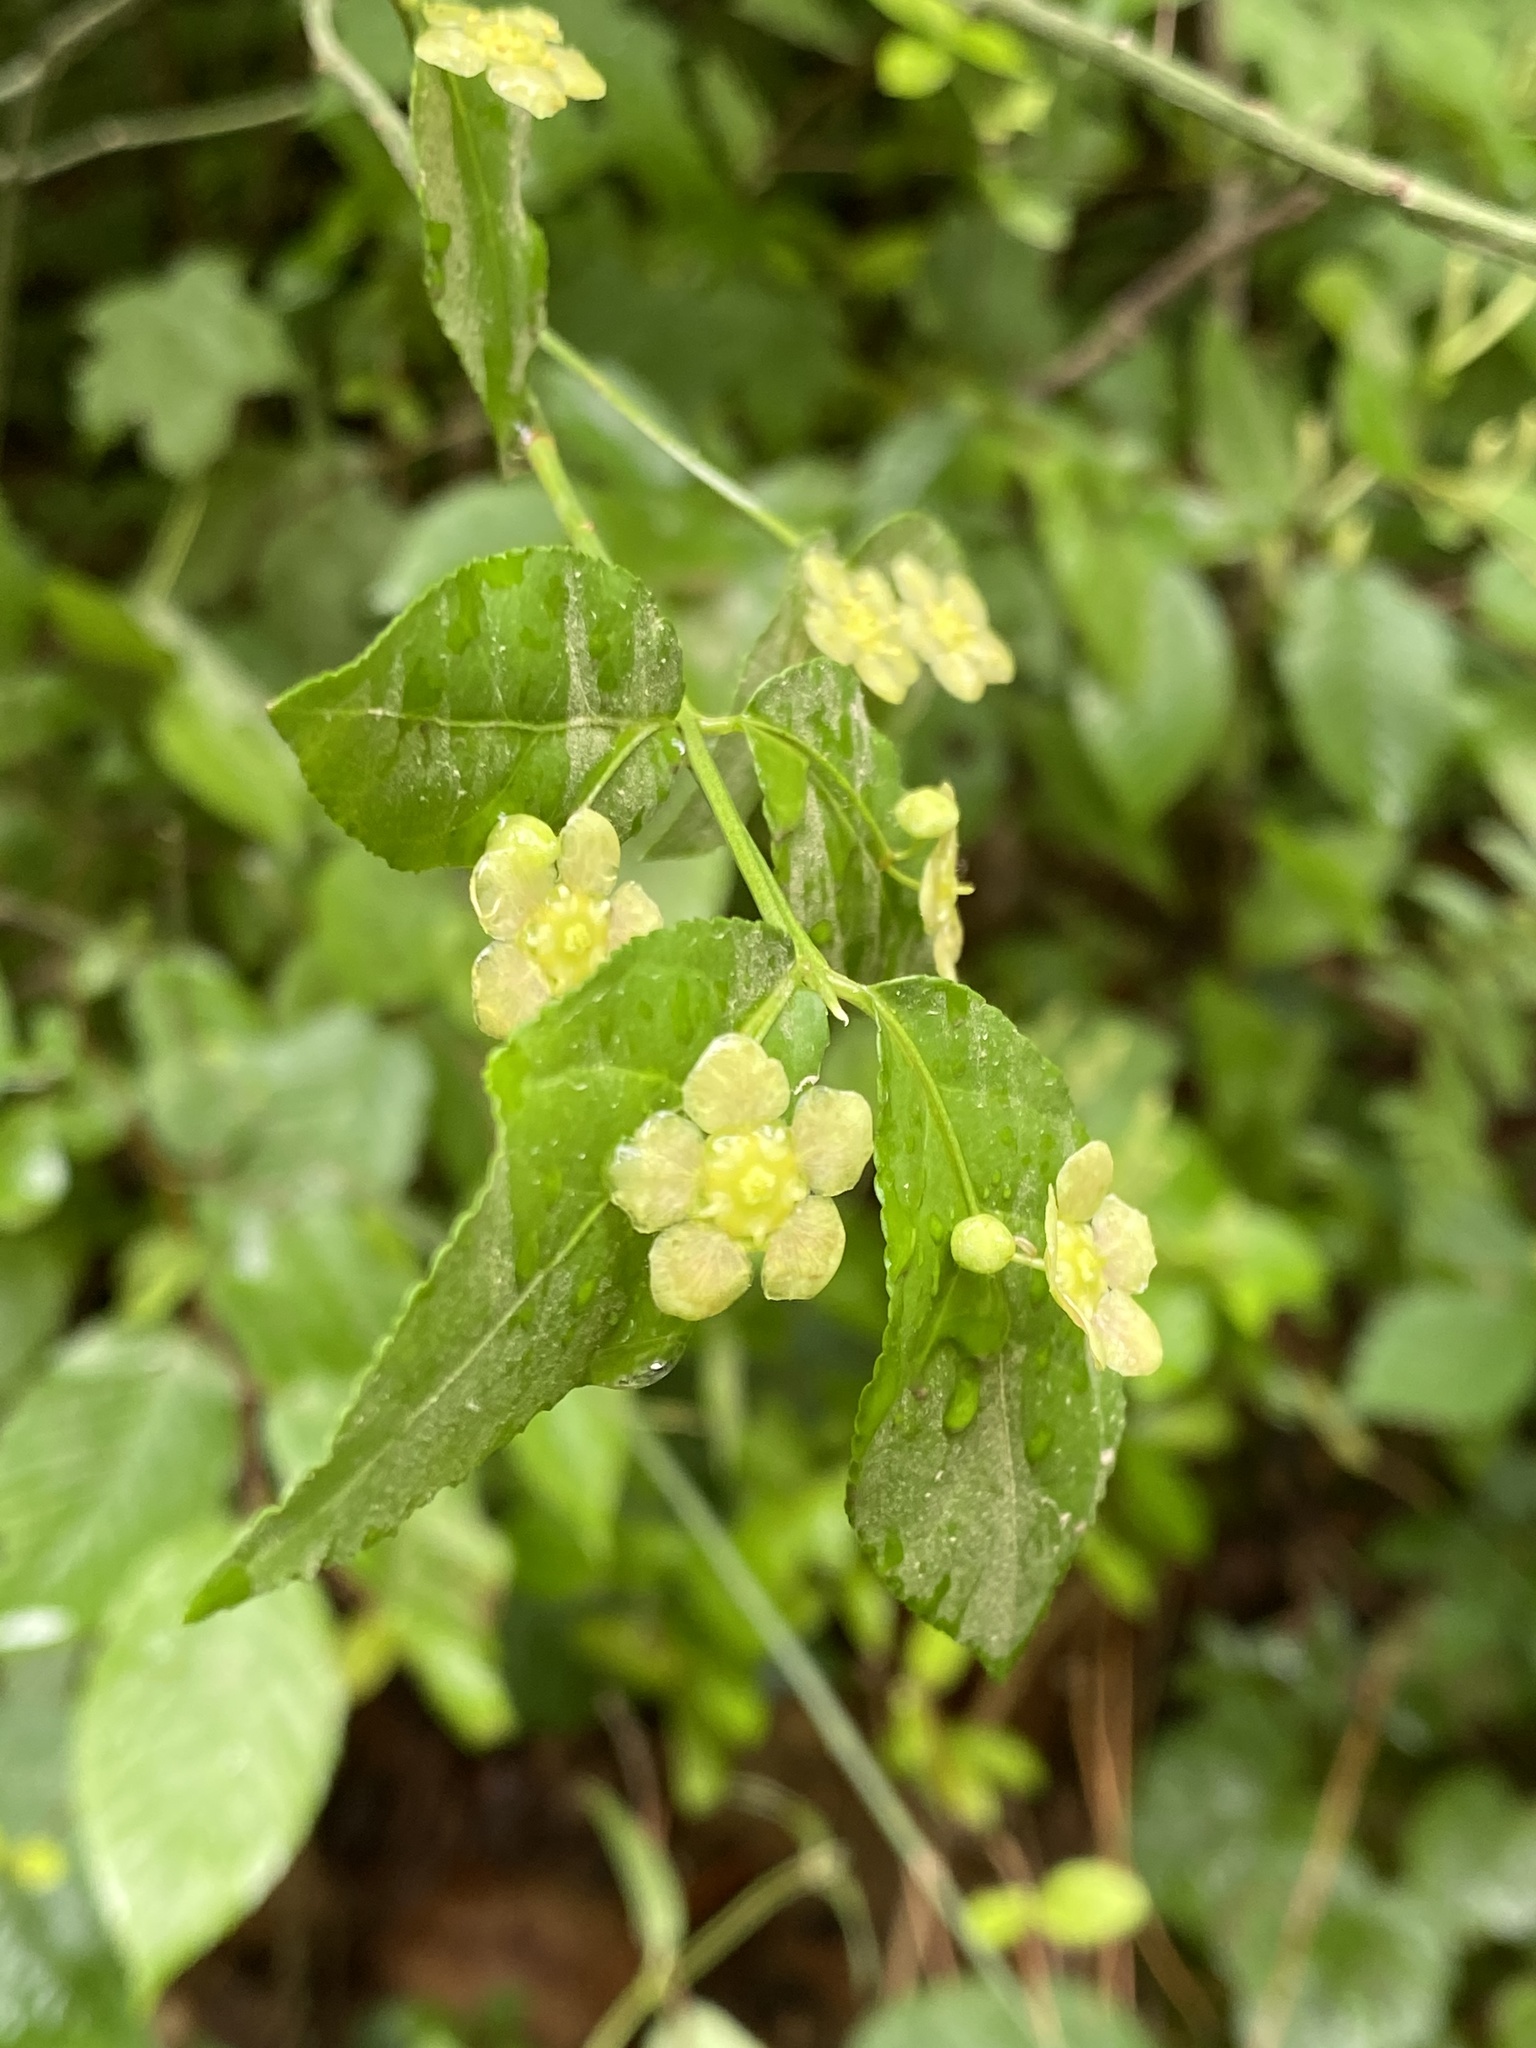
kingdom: Plantae
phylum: Tracheophyta
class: Magnoliopsida
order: Celastrales
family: Celastraceae
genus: Euonymus
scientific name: Euonymus americanus
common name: Bursting-heart
